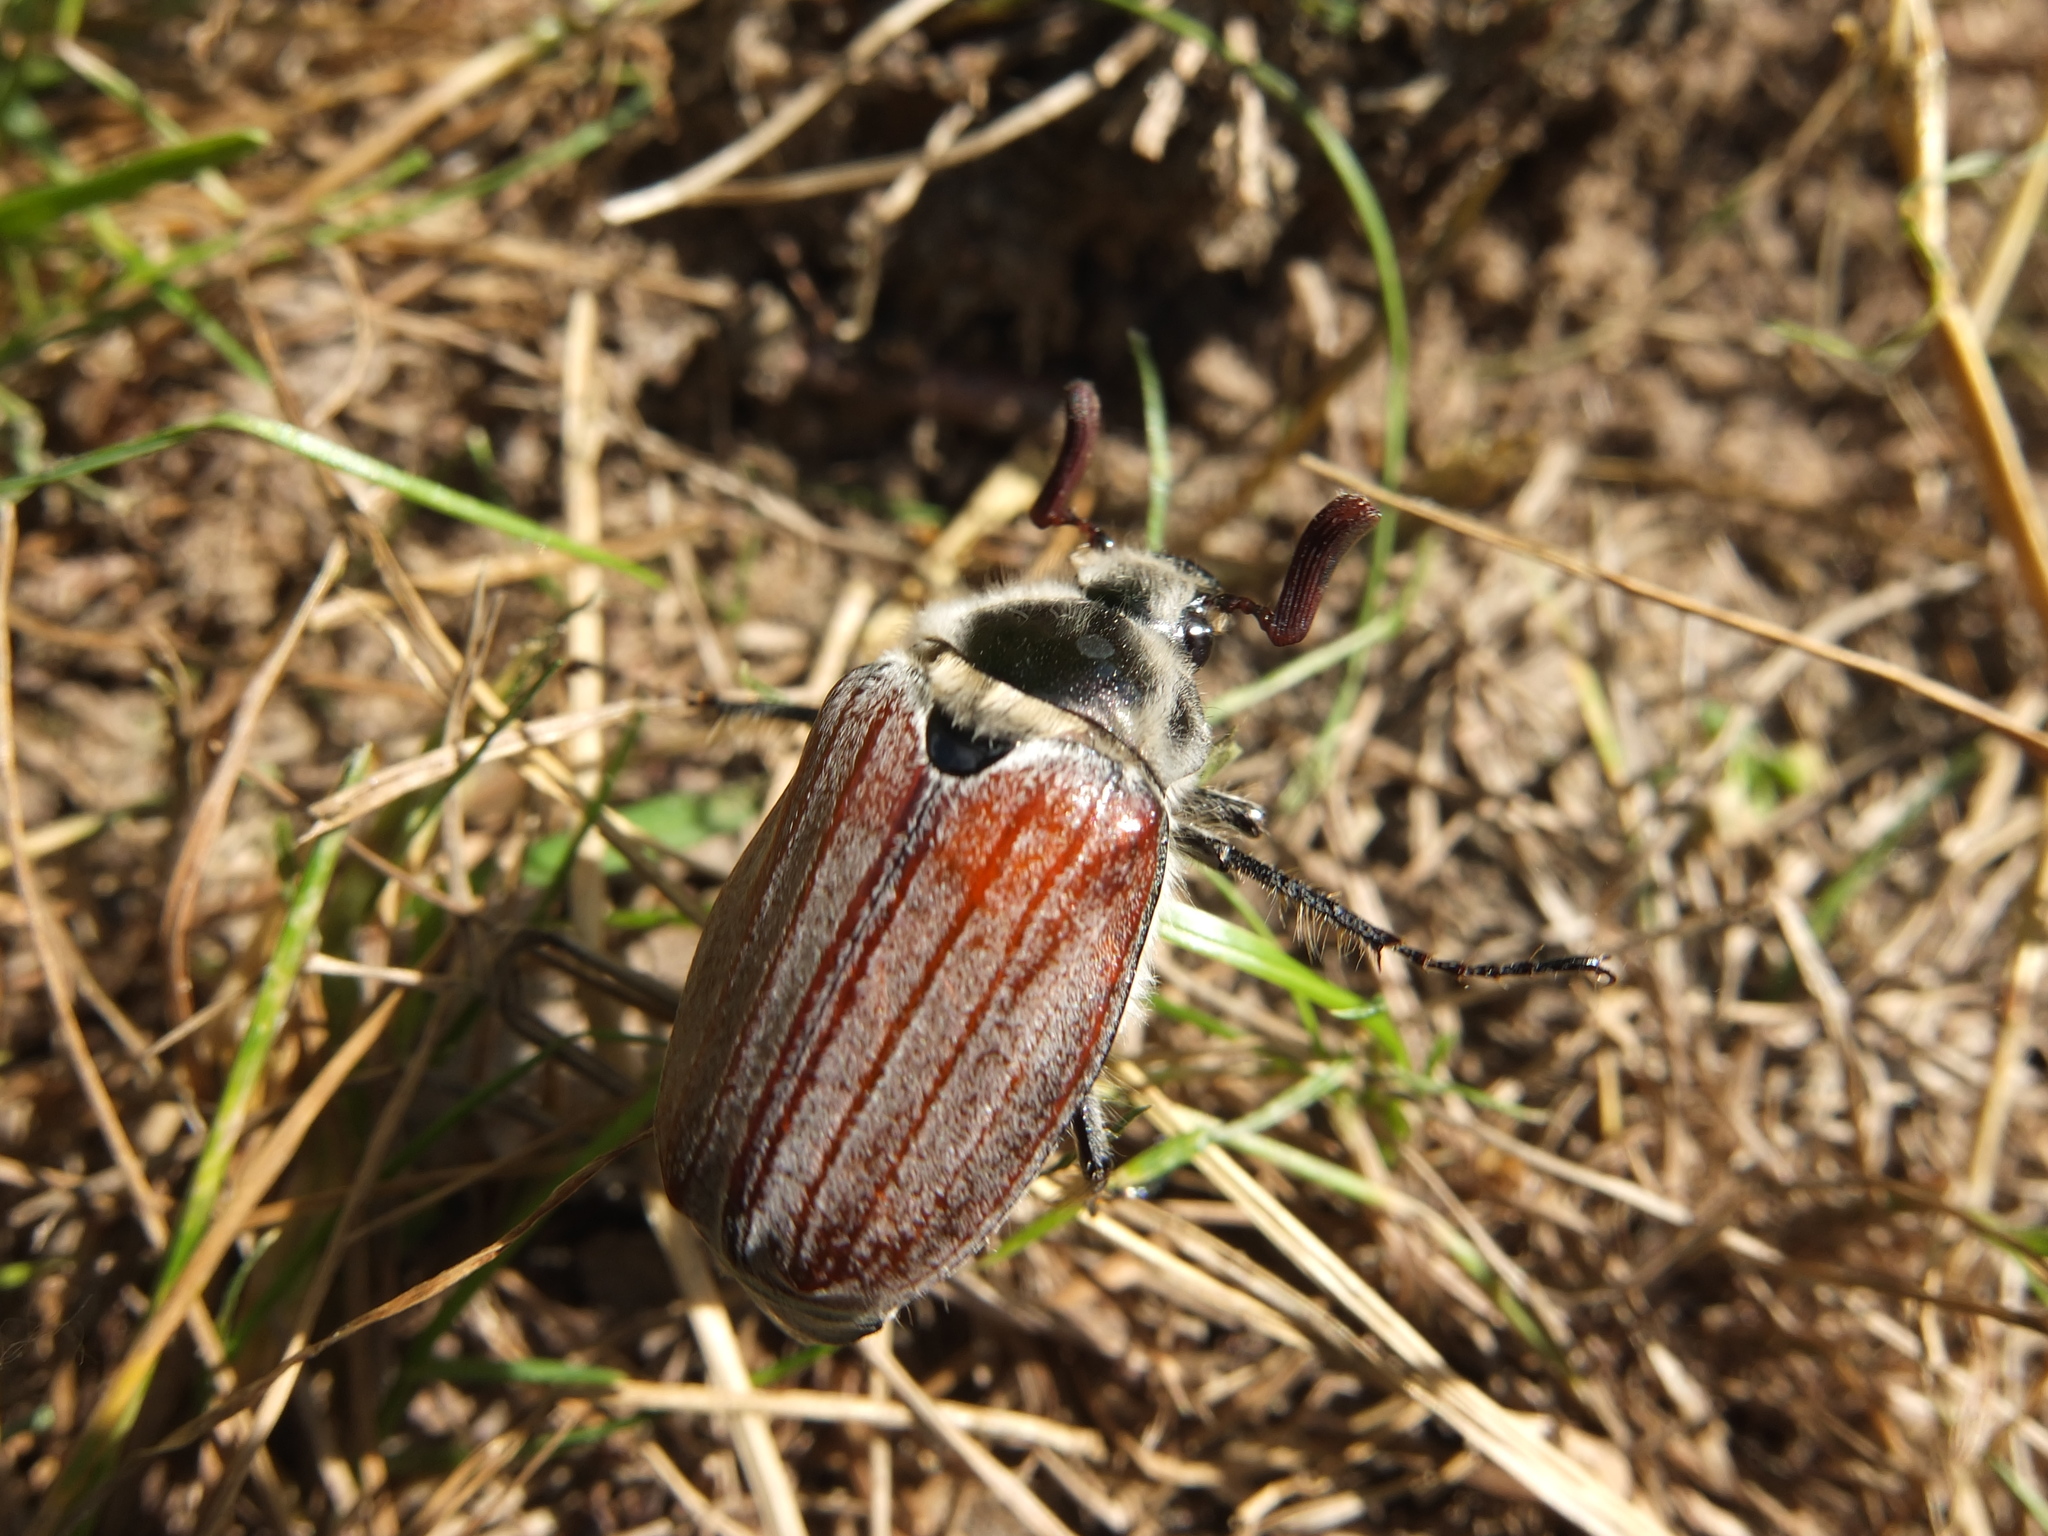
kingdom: Animalia
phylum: Arthropoda
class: Insecta
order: Coleoptera
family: Scarabaeidae
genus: Melolontha
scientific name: Melolontha hippocastani
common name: Chestnut cockchafer
